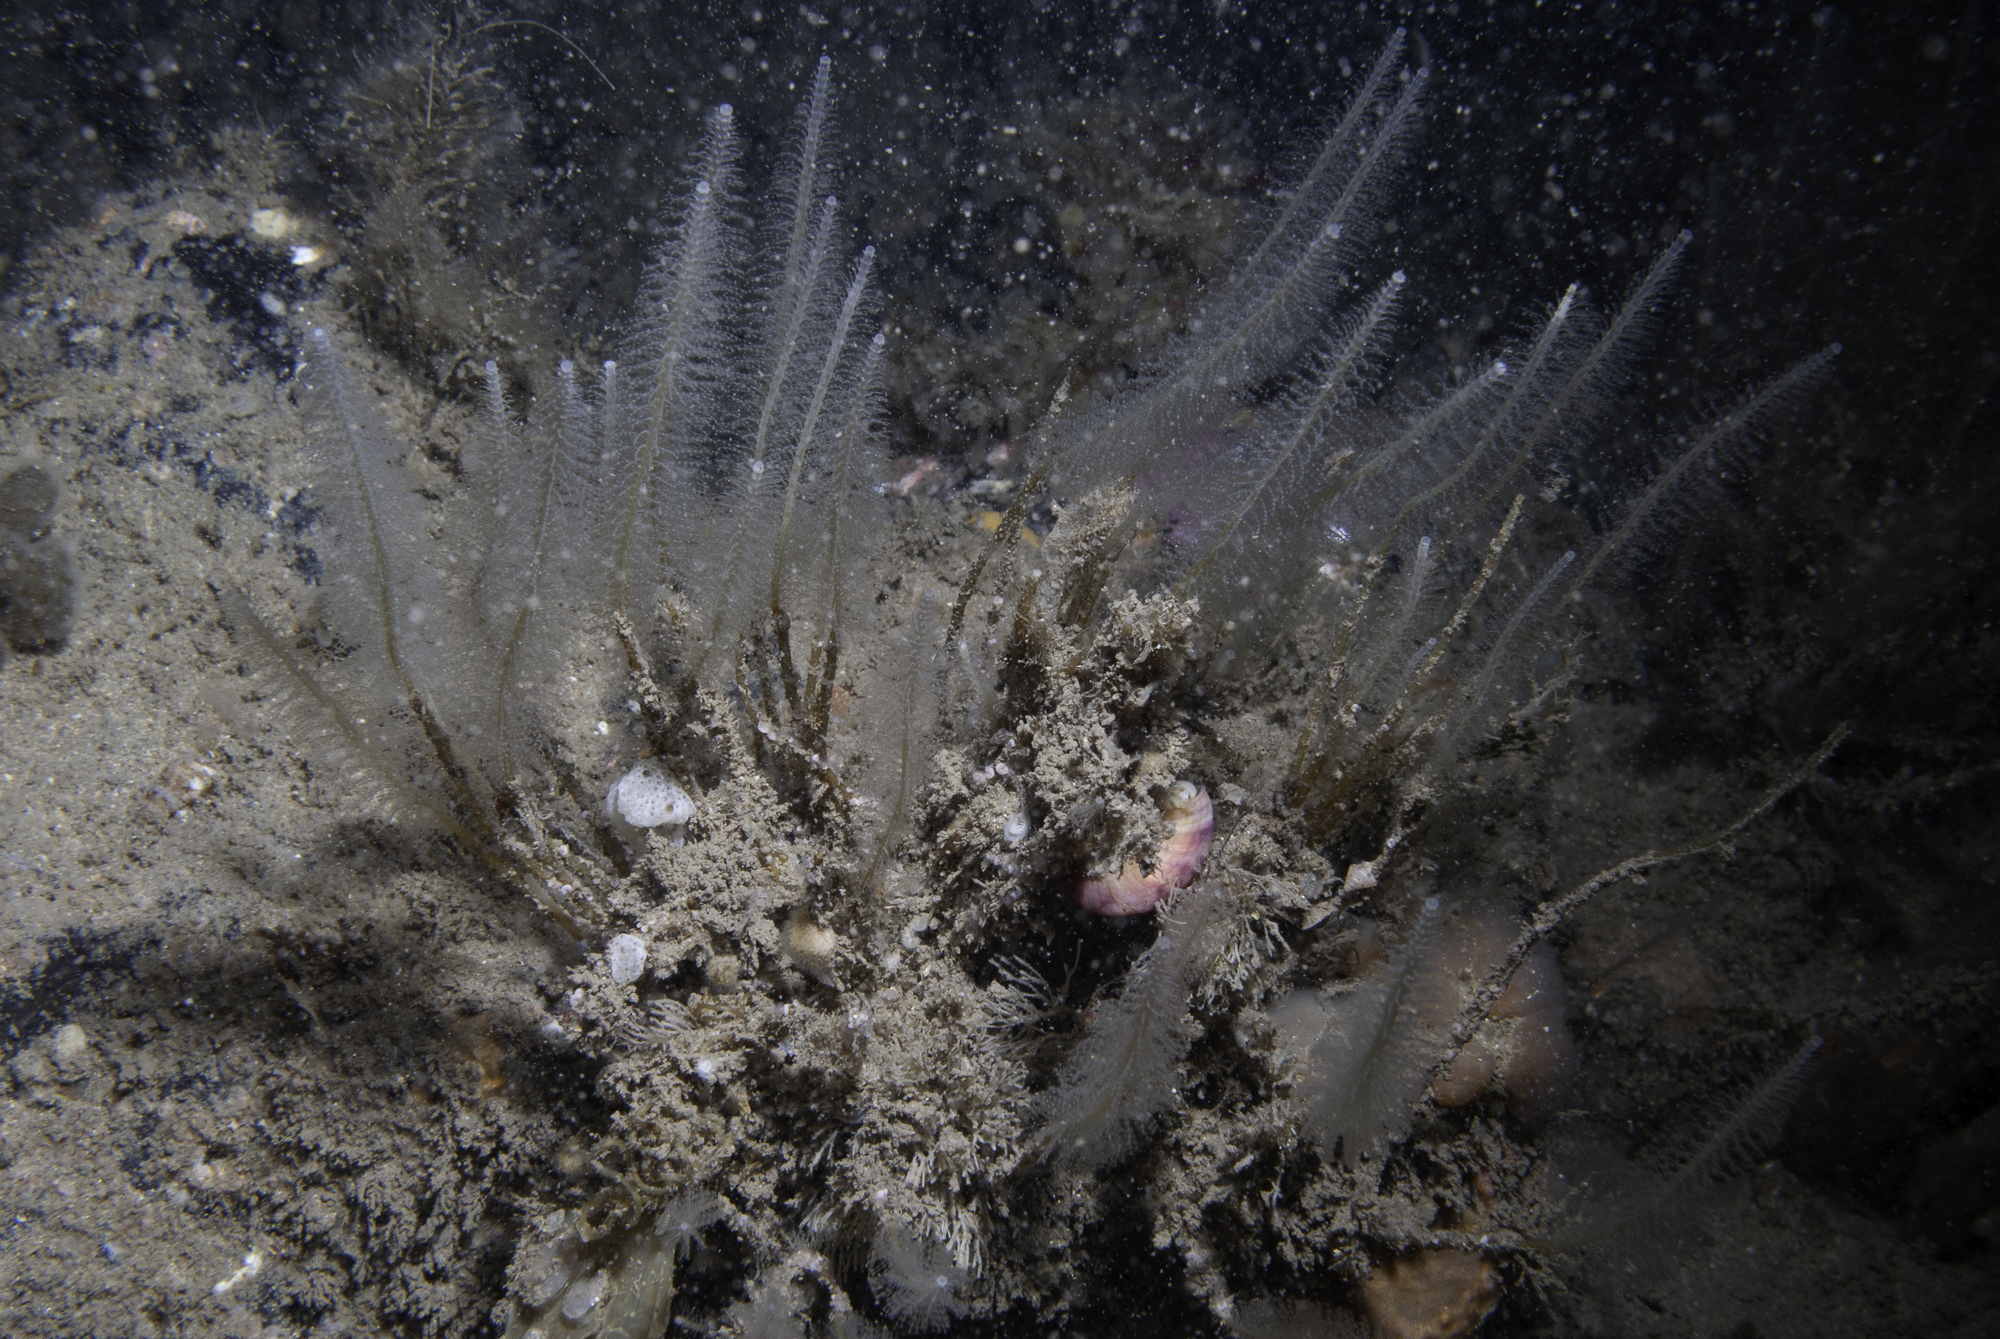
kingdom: Animalia
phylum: Cnidaria
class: Hydrozoa
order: Leptothecata
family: Plumulariidae
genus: Nemertesia
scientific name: Nemertesia antennina
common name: Sea beard
